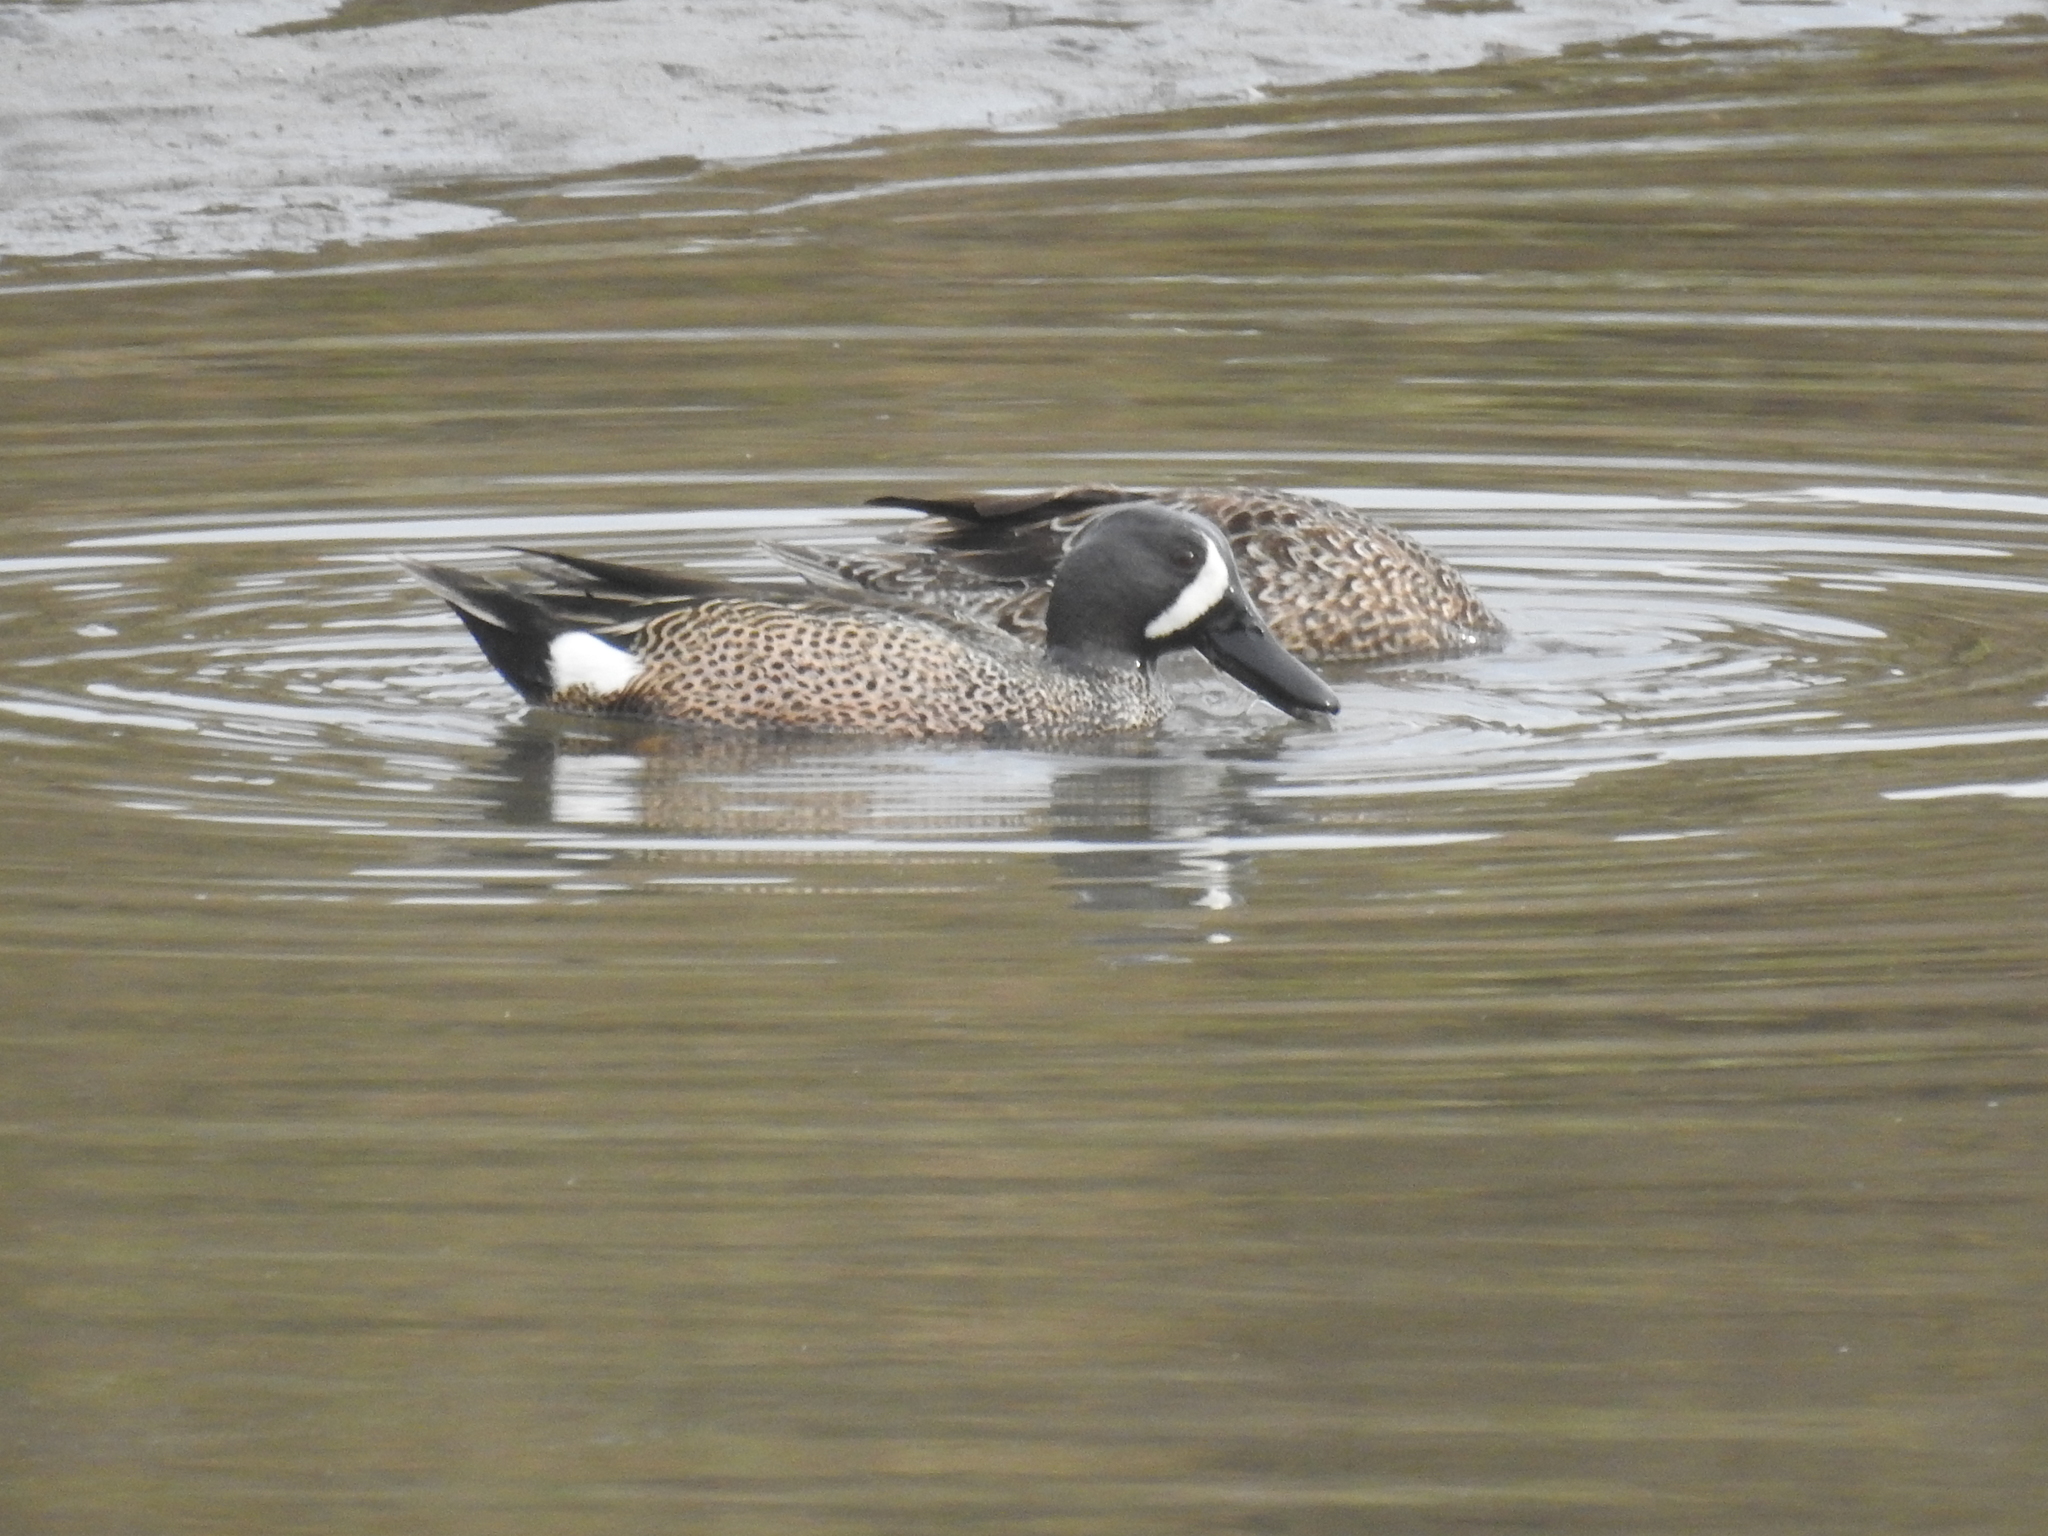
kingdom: Animalia
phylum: Chordata
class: Aves
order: Anseriformes
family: Anatidae
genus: Spatula
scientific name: Spatula discors
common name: Blue-winged teal
